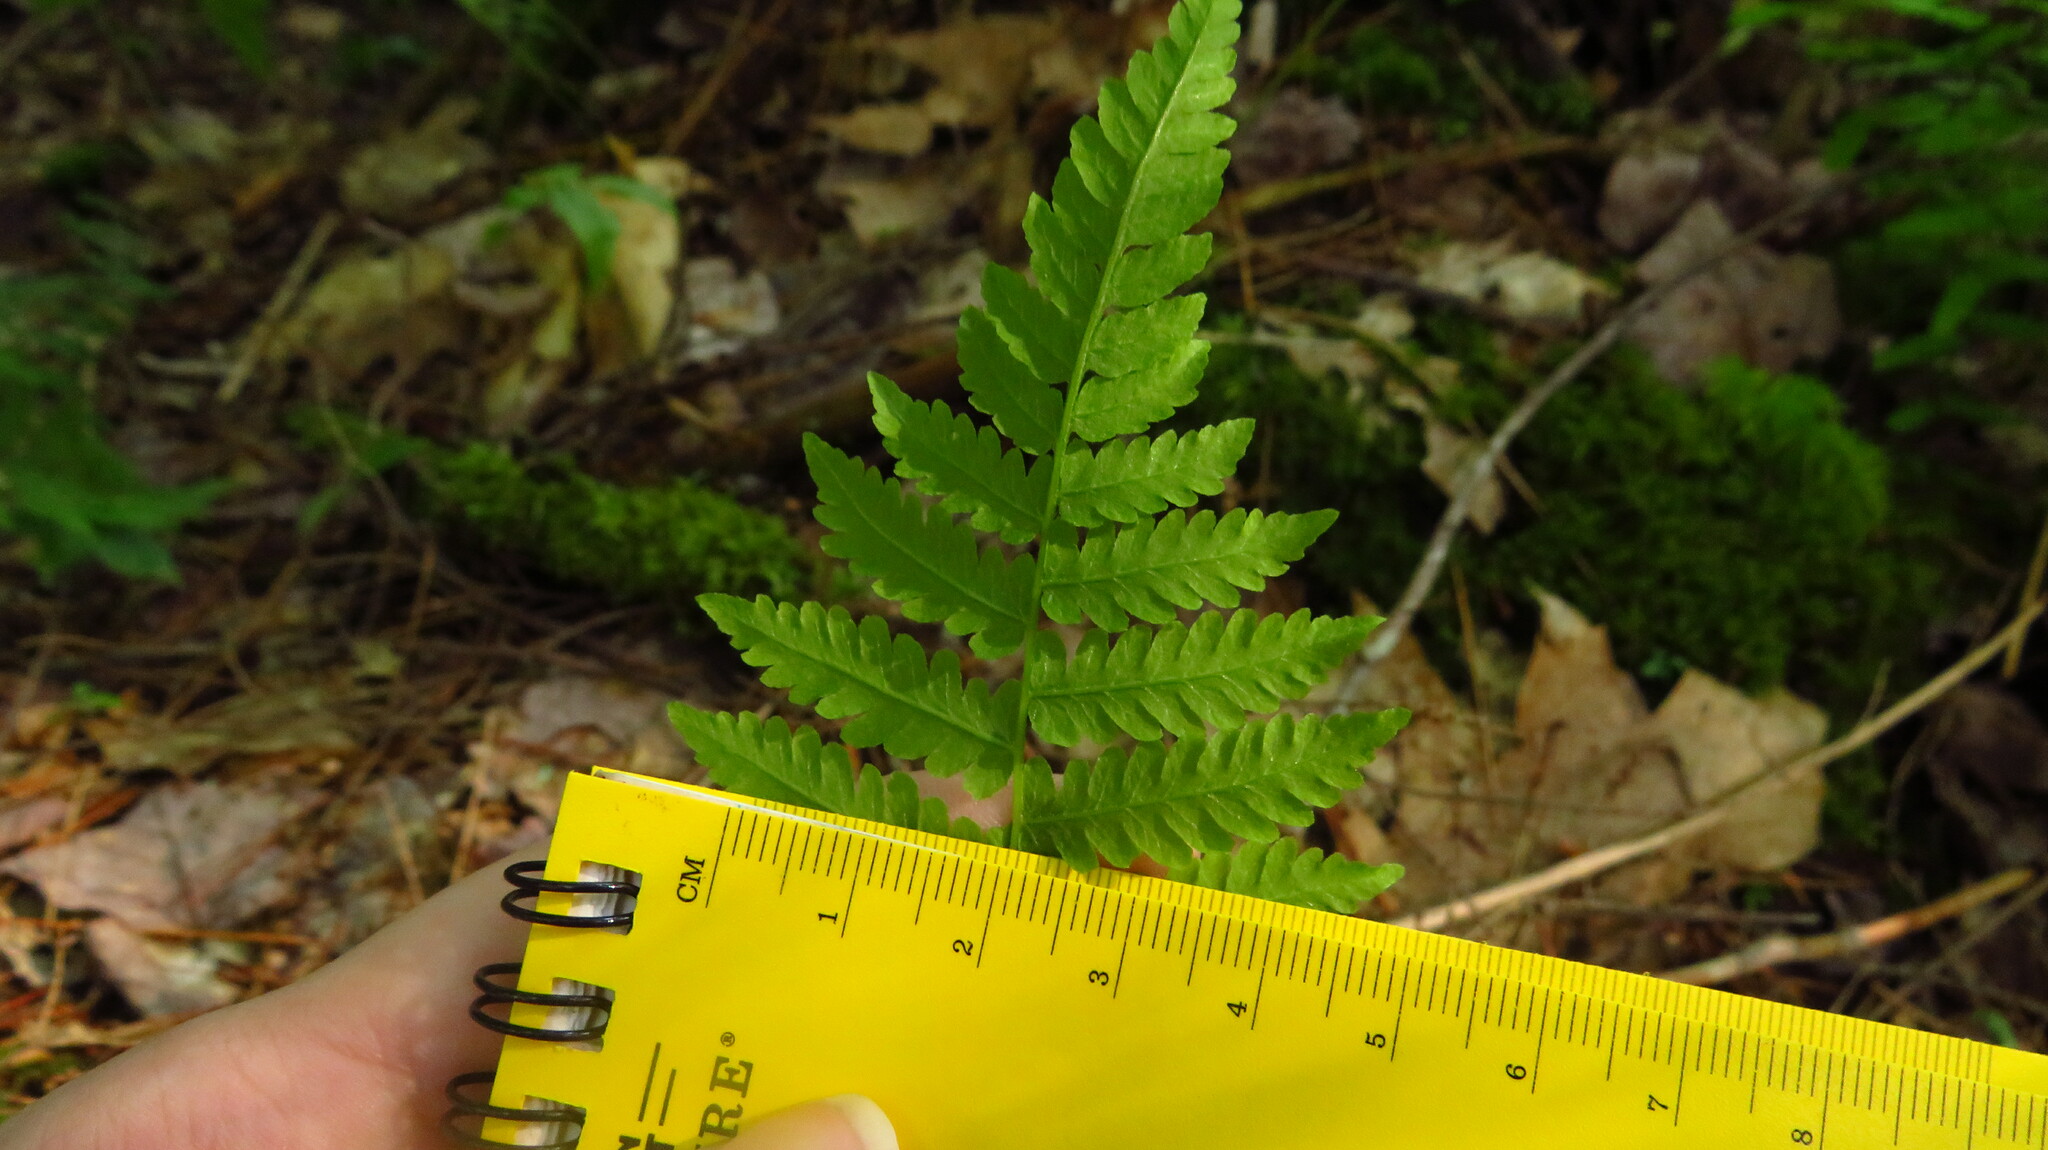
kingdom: Plantae
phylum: Tracheophyta
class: Polypodiopsida
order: Polypodiales
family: Thelypteridaceae
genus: Coryphopteris
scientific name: Coryphopteris simulata
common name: Bog fern
